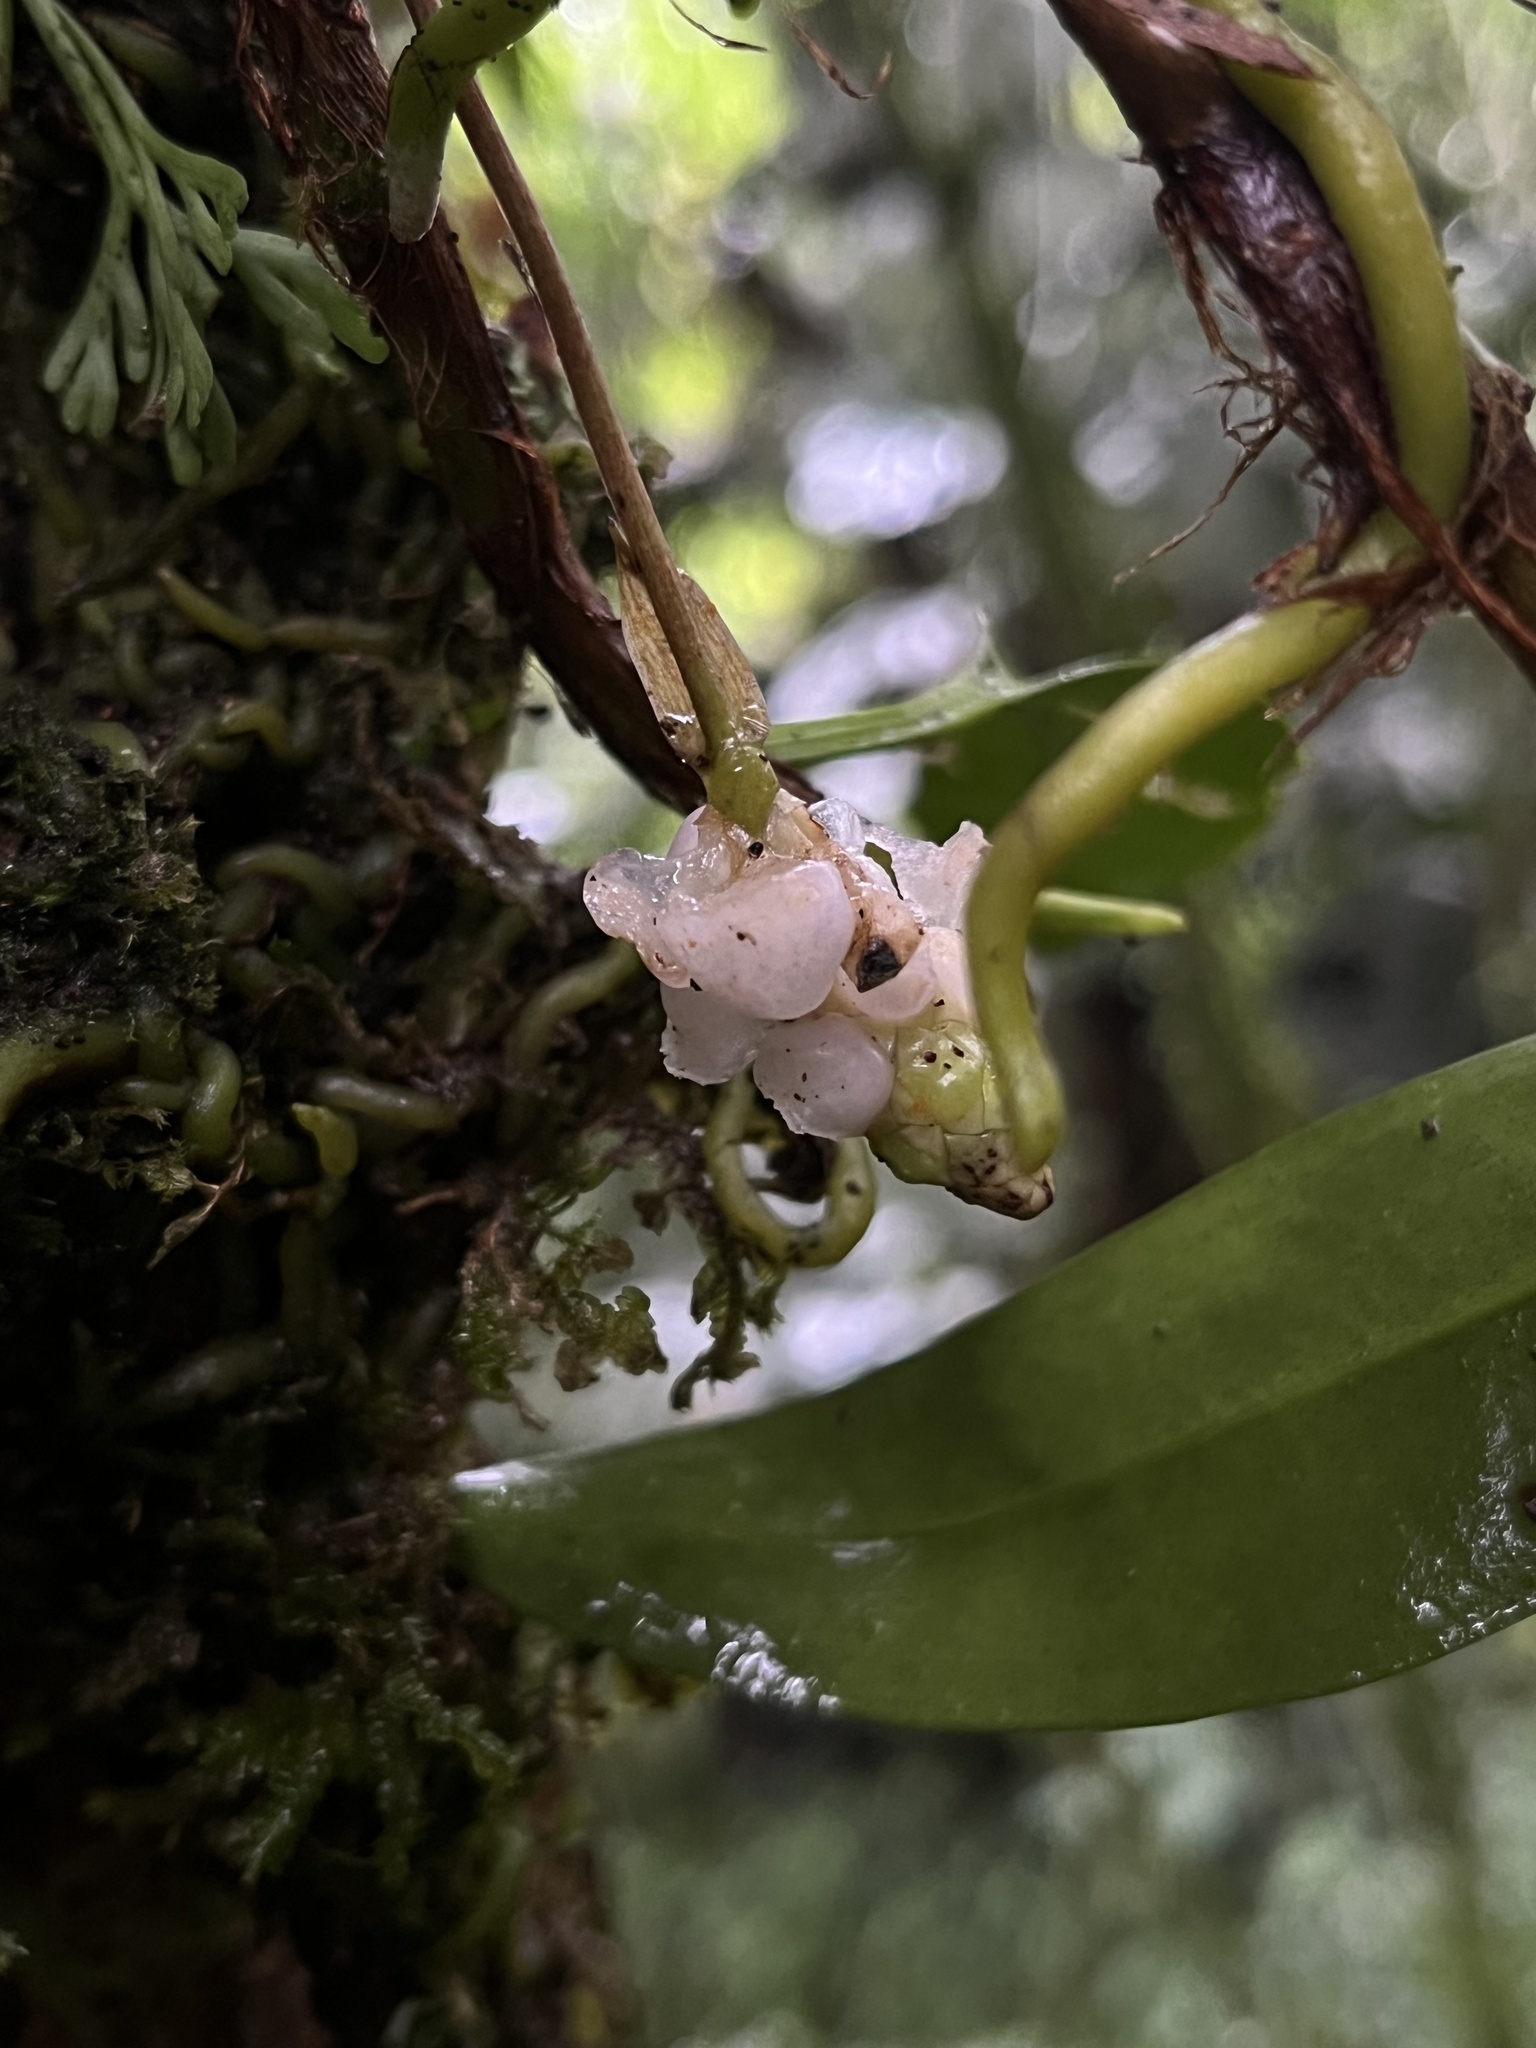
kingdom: Plantae
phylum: Tracheophyta
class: Liliopsida
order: Alismatales
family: Araceae
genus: Anthurium
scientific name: Anthurium scandens
